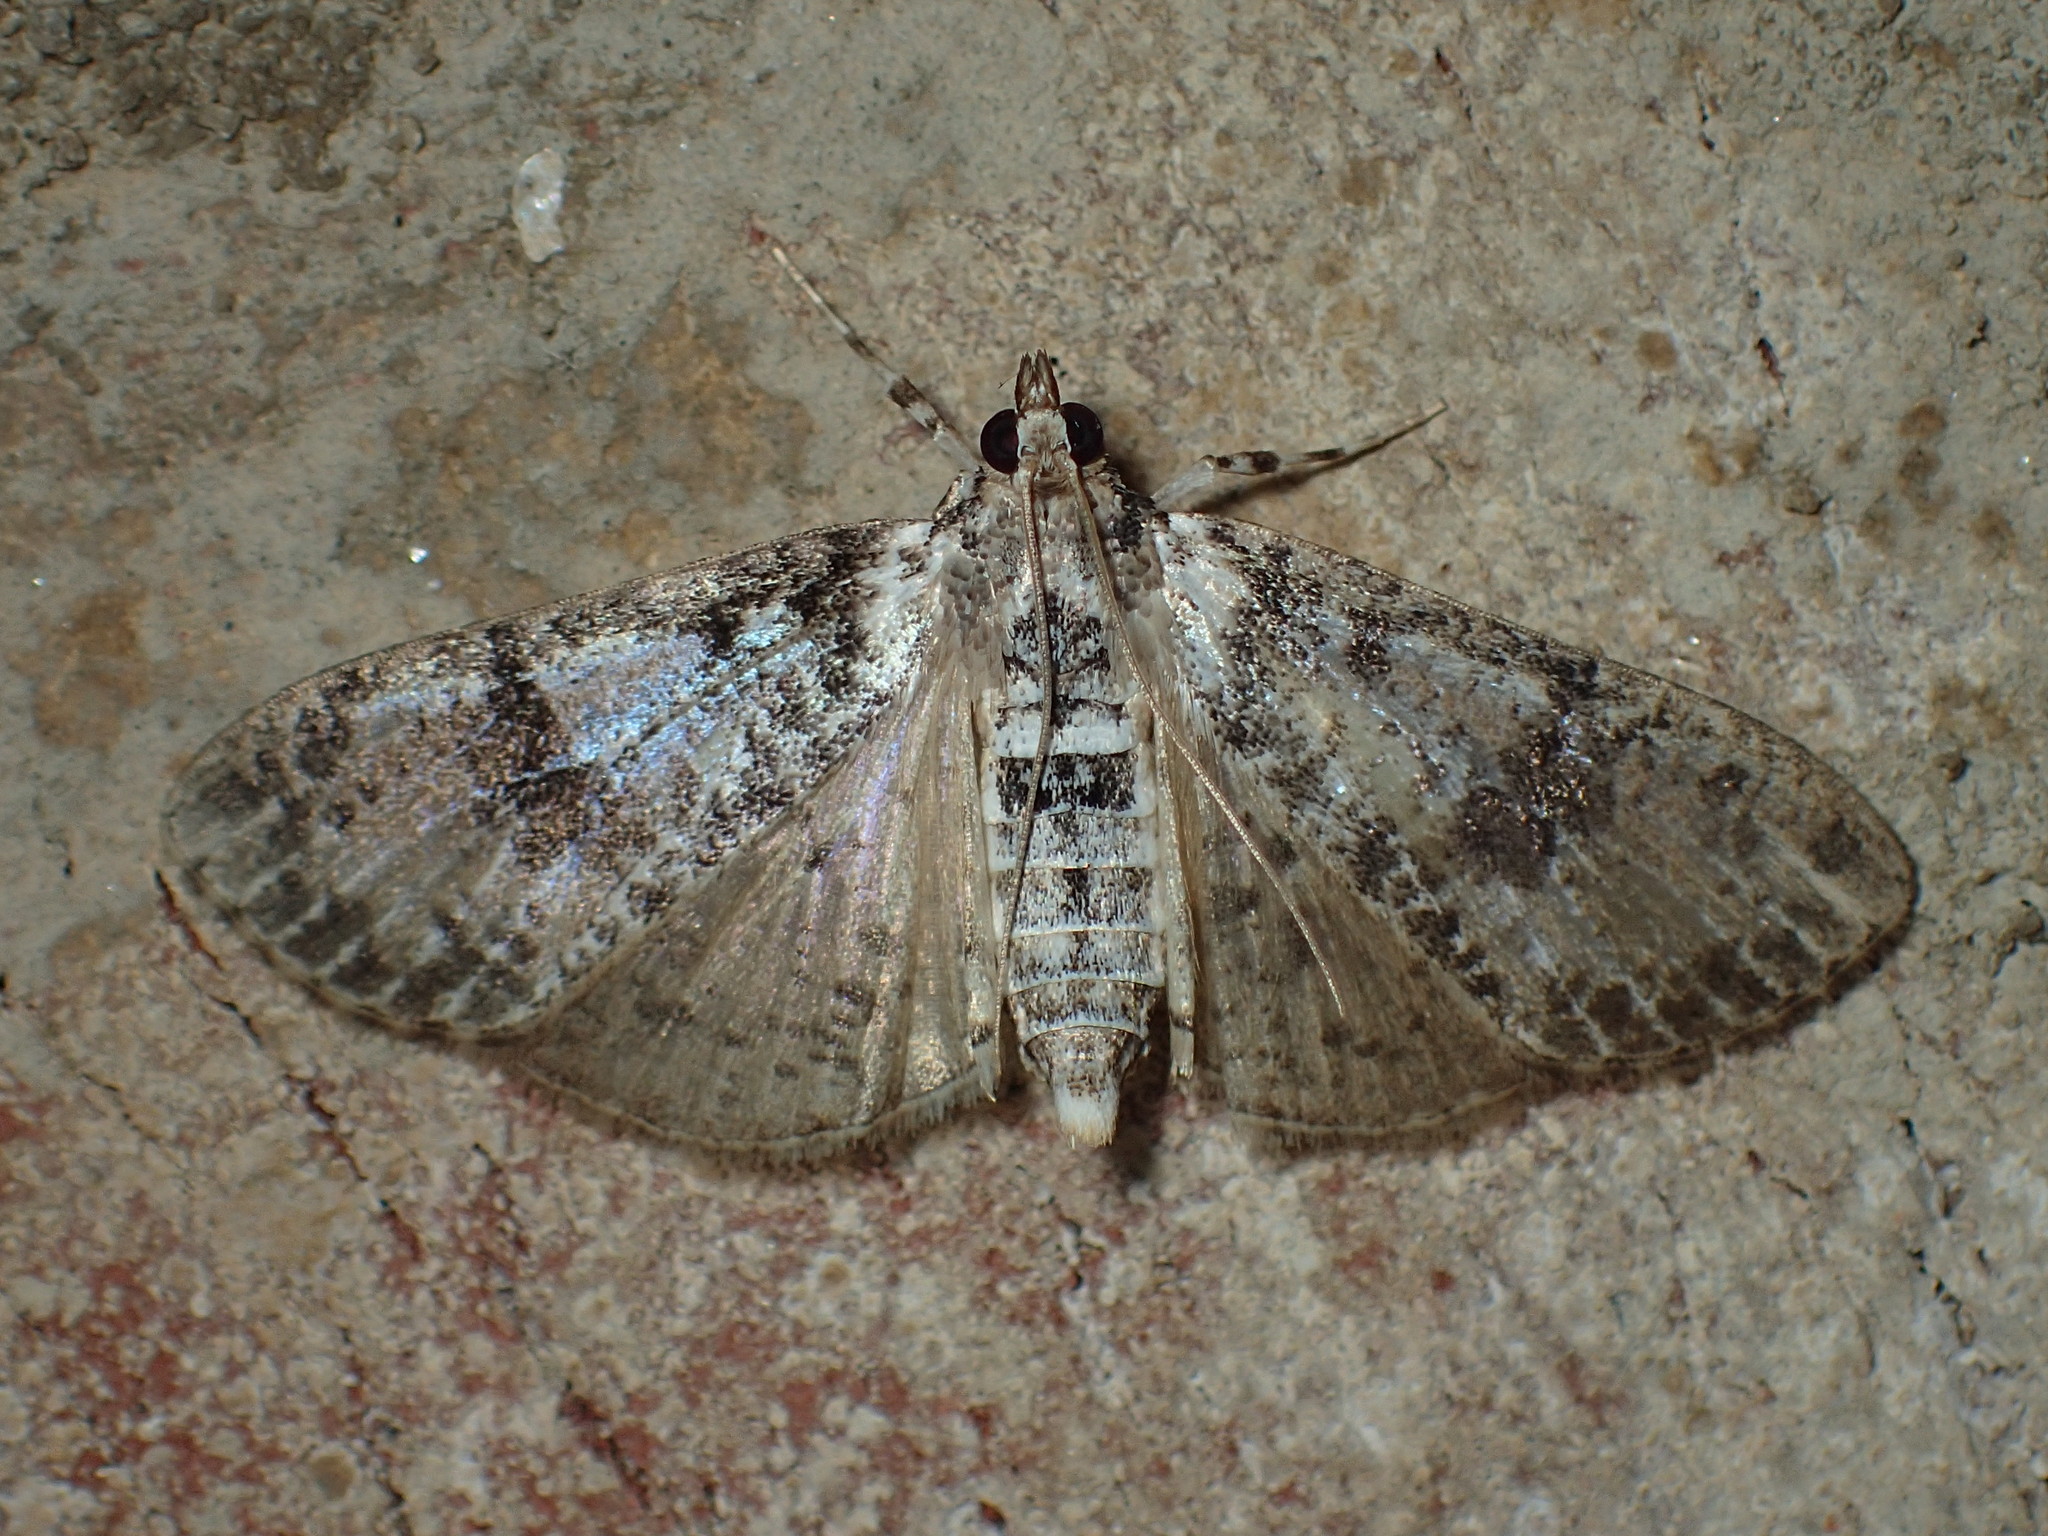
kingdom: Animalia
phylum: Arthropoda
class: Insecta
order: Lepidoptera
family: Crambidae
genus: Palpita
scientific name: Palpita magniferalis
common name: Splendid palpita moth
